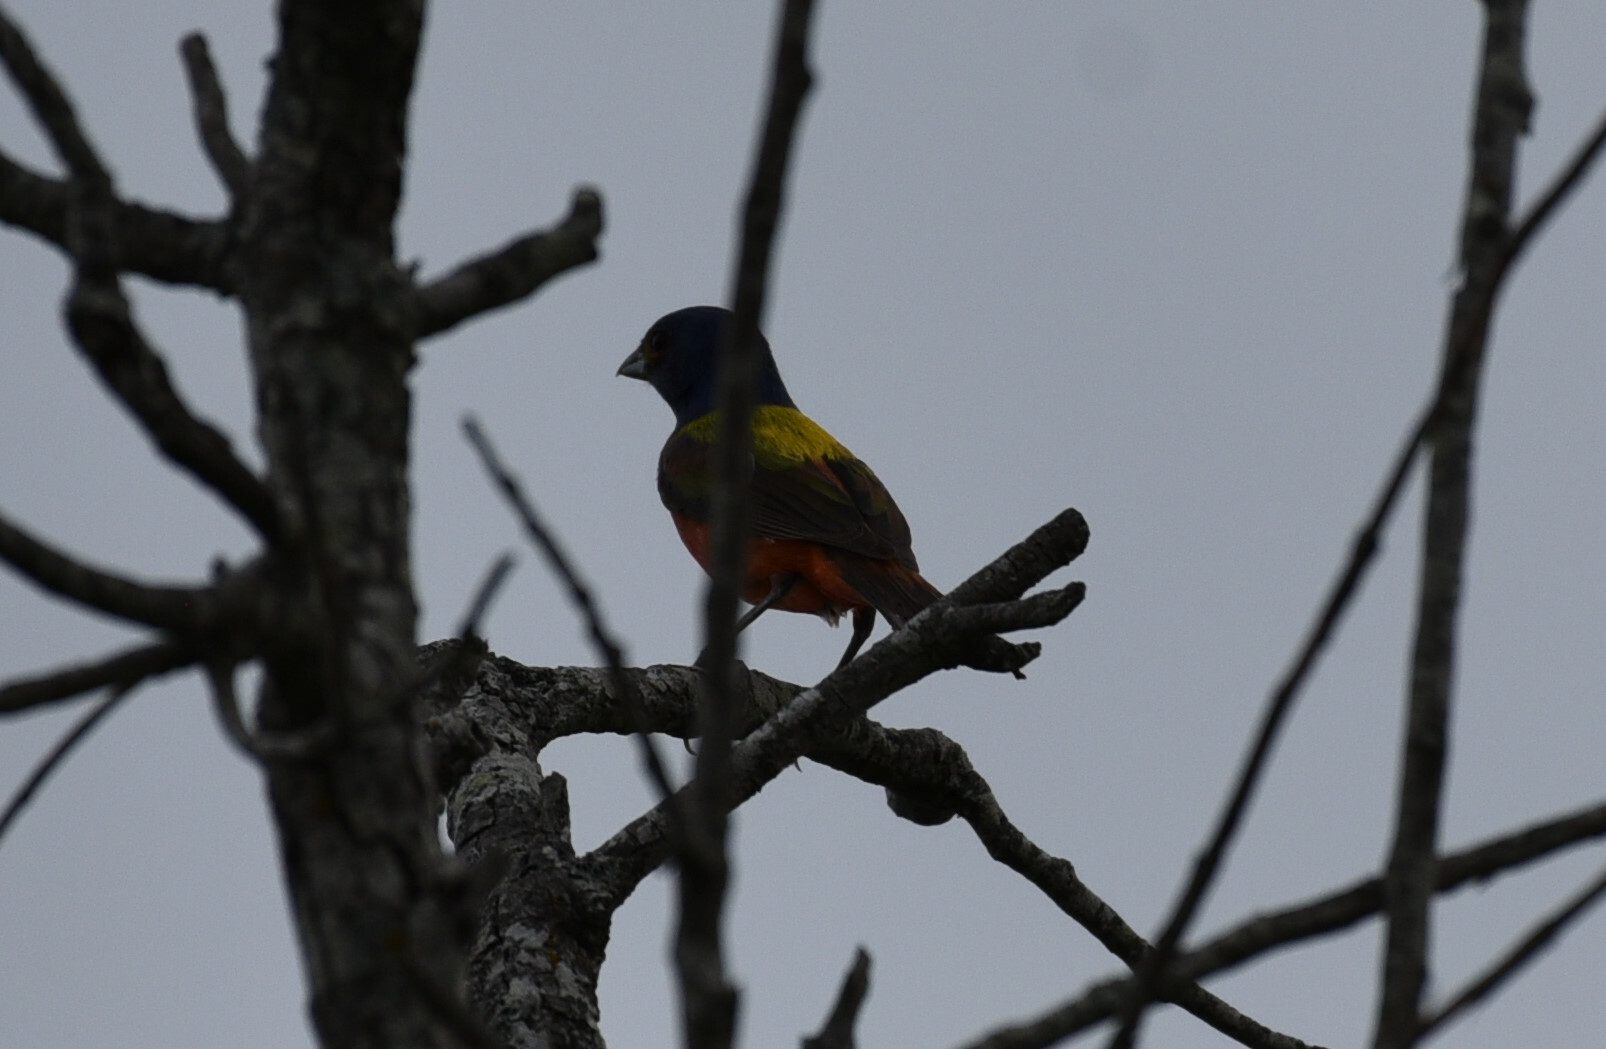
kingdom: Animalia
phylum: Chordata
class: Aves
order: Passeriformes
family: Cardinalidae
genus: Passerina
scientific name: Passerina ciris
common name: Painted bunting
